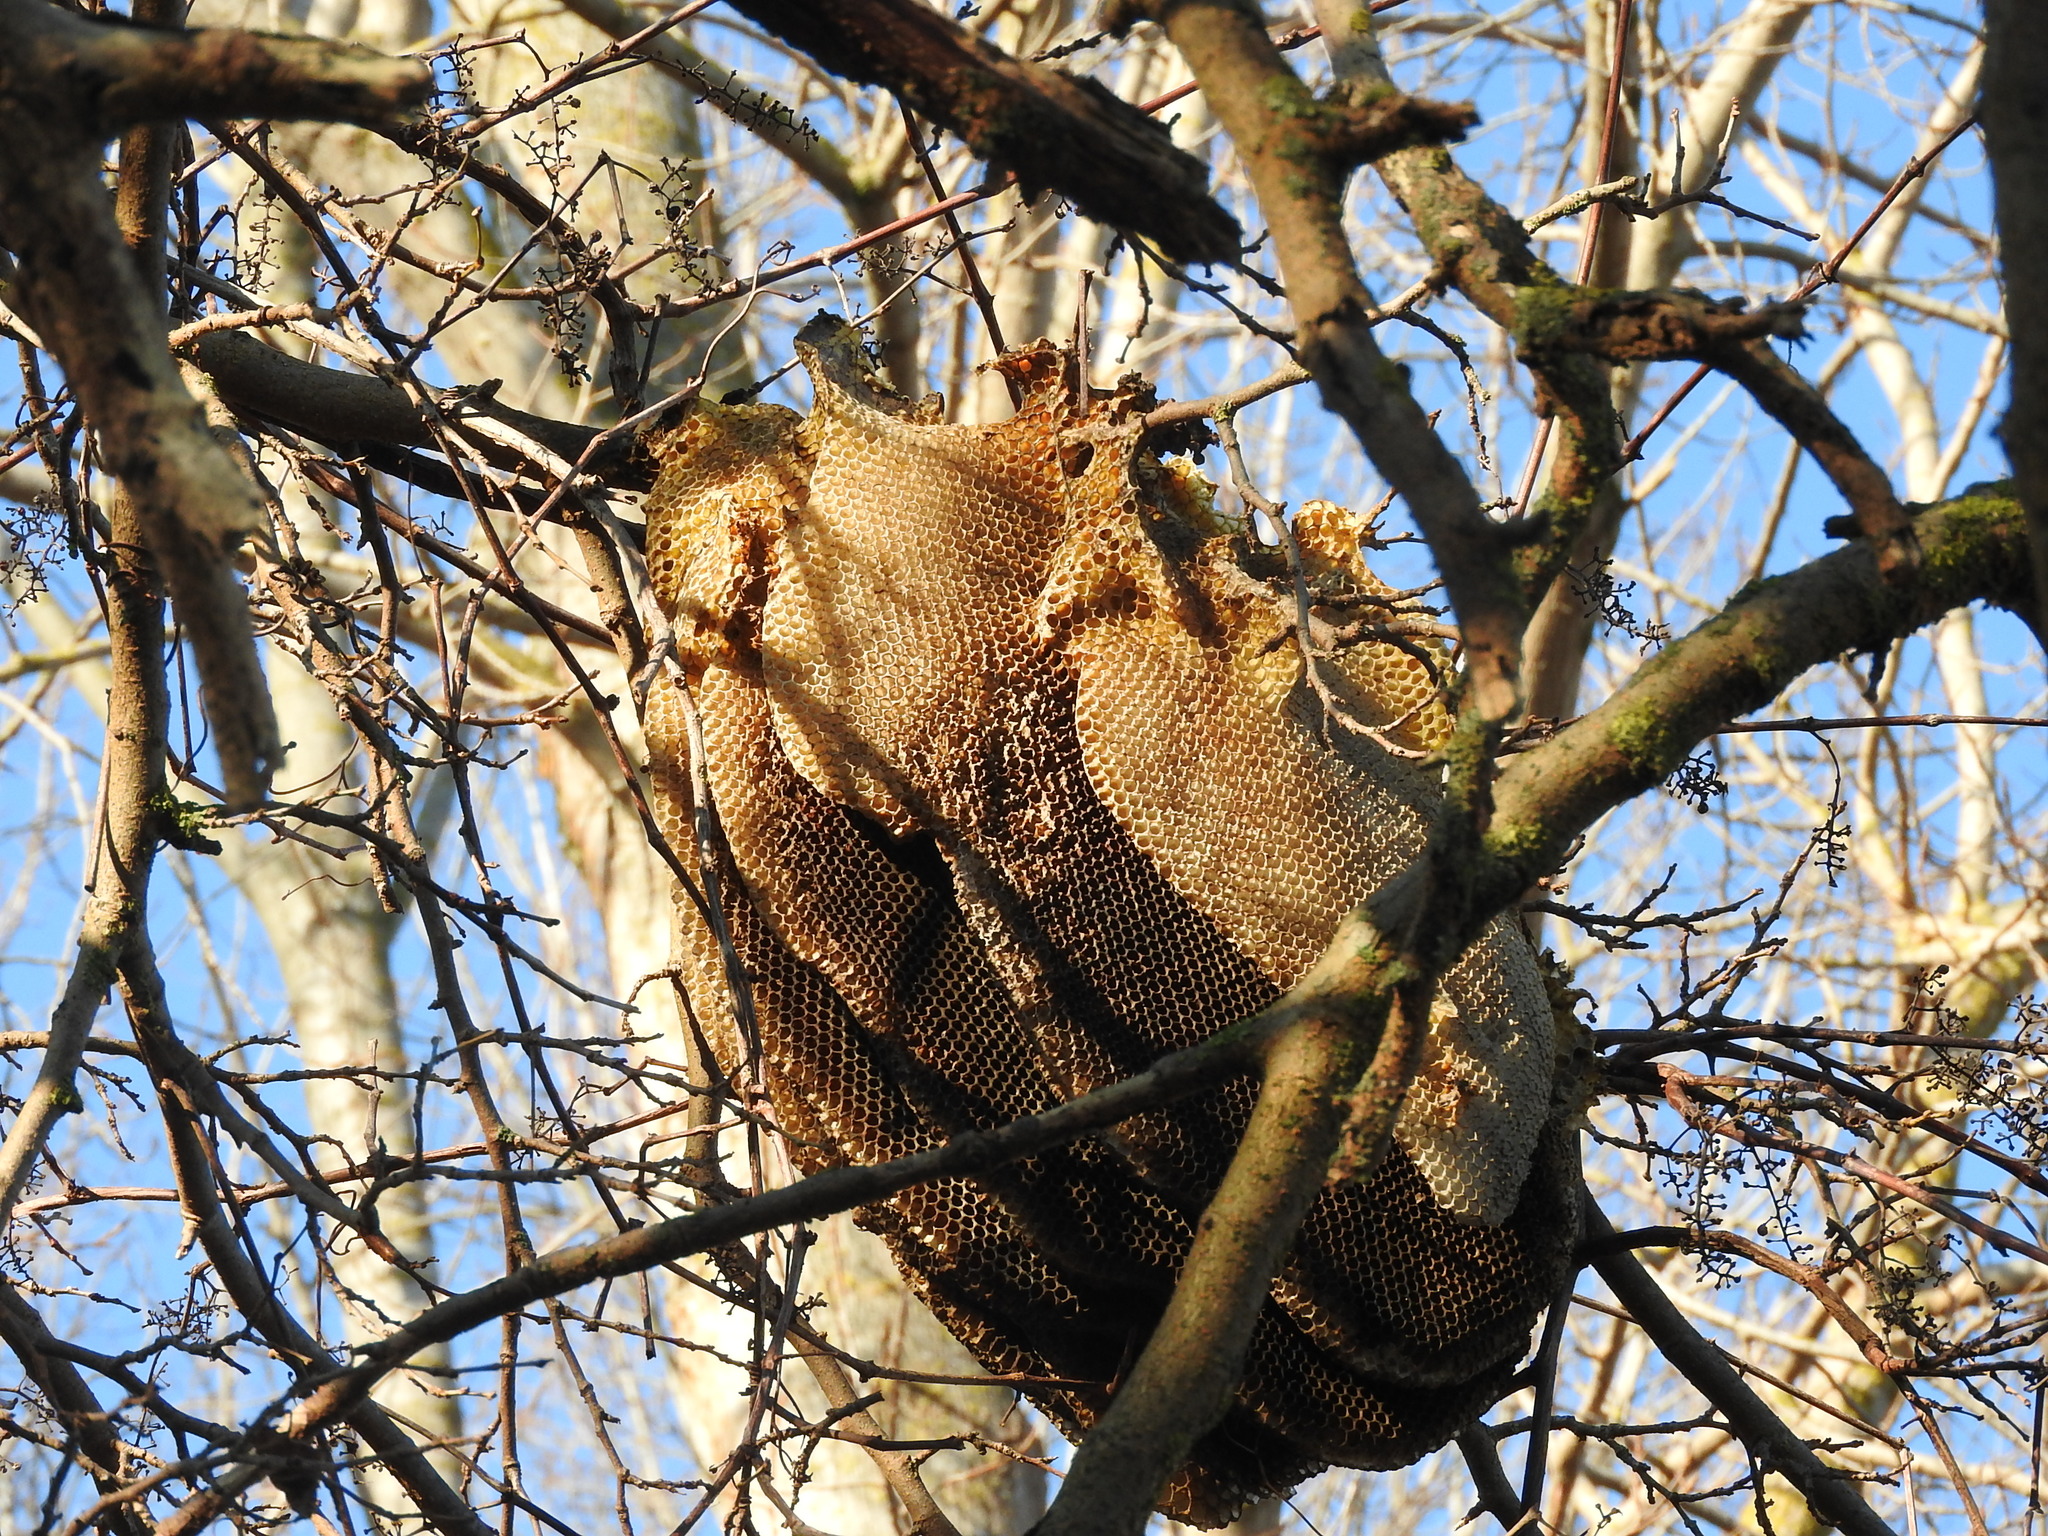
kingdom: Animalia
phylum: Arthropoda
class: Insecta
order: Hymenoptera
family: Apidae
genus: Apis
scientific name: Apis mellifera
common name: Honey bee
